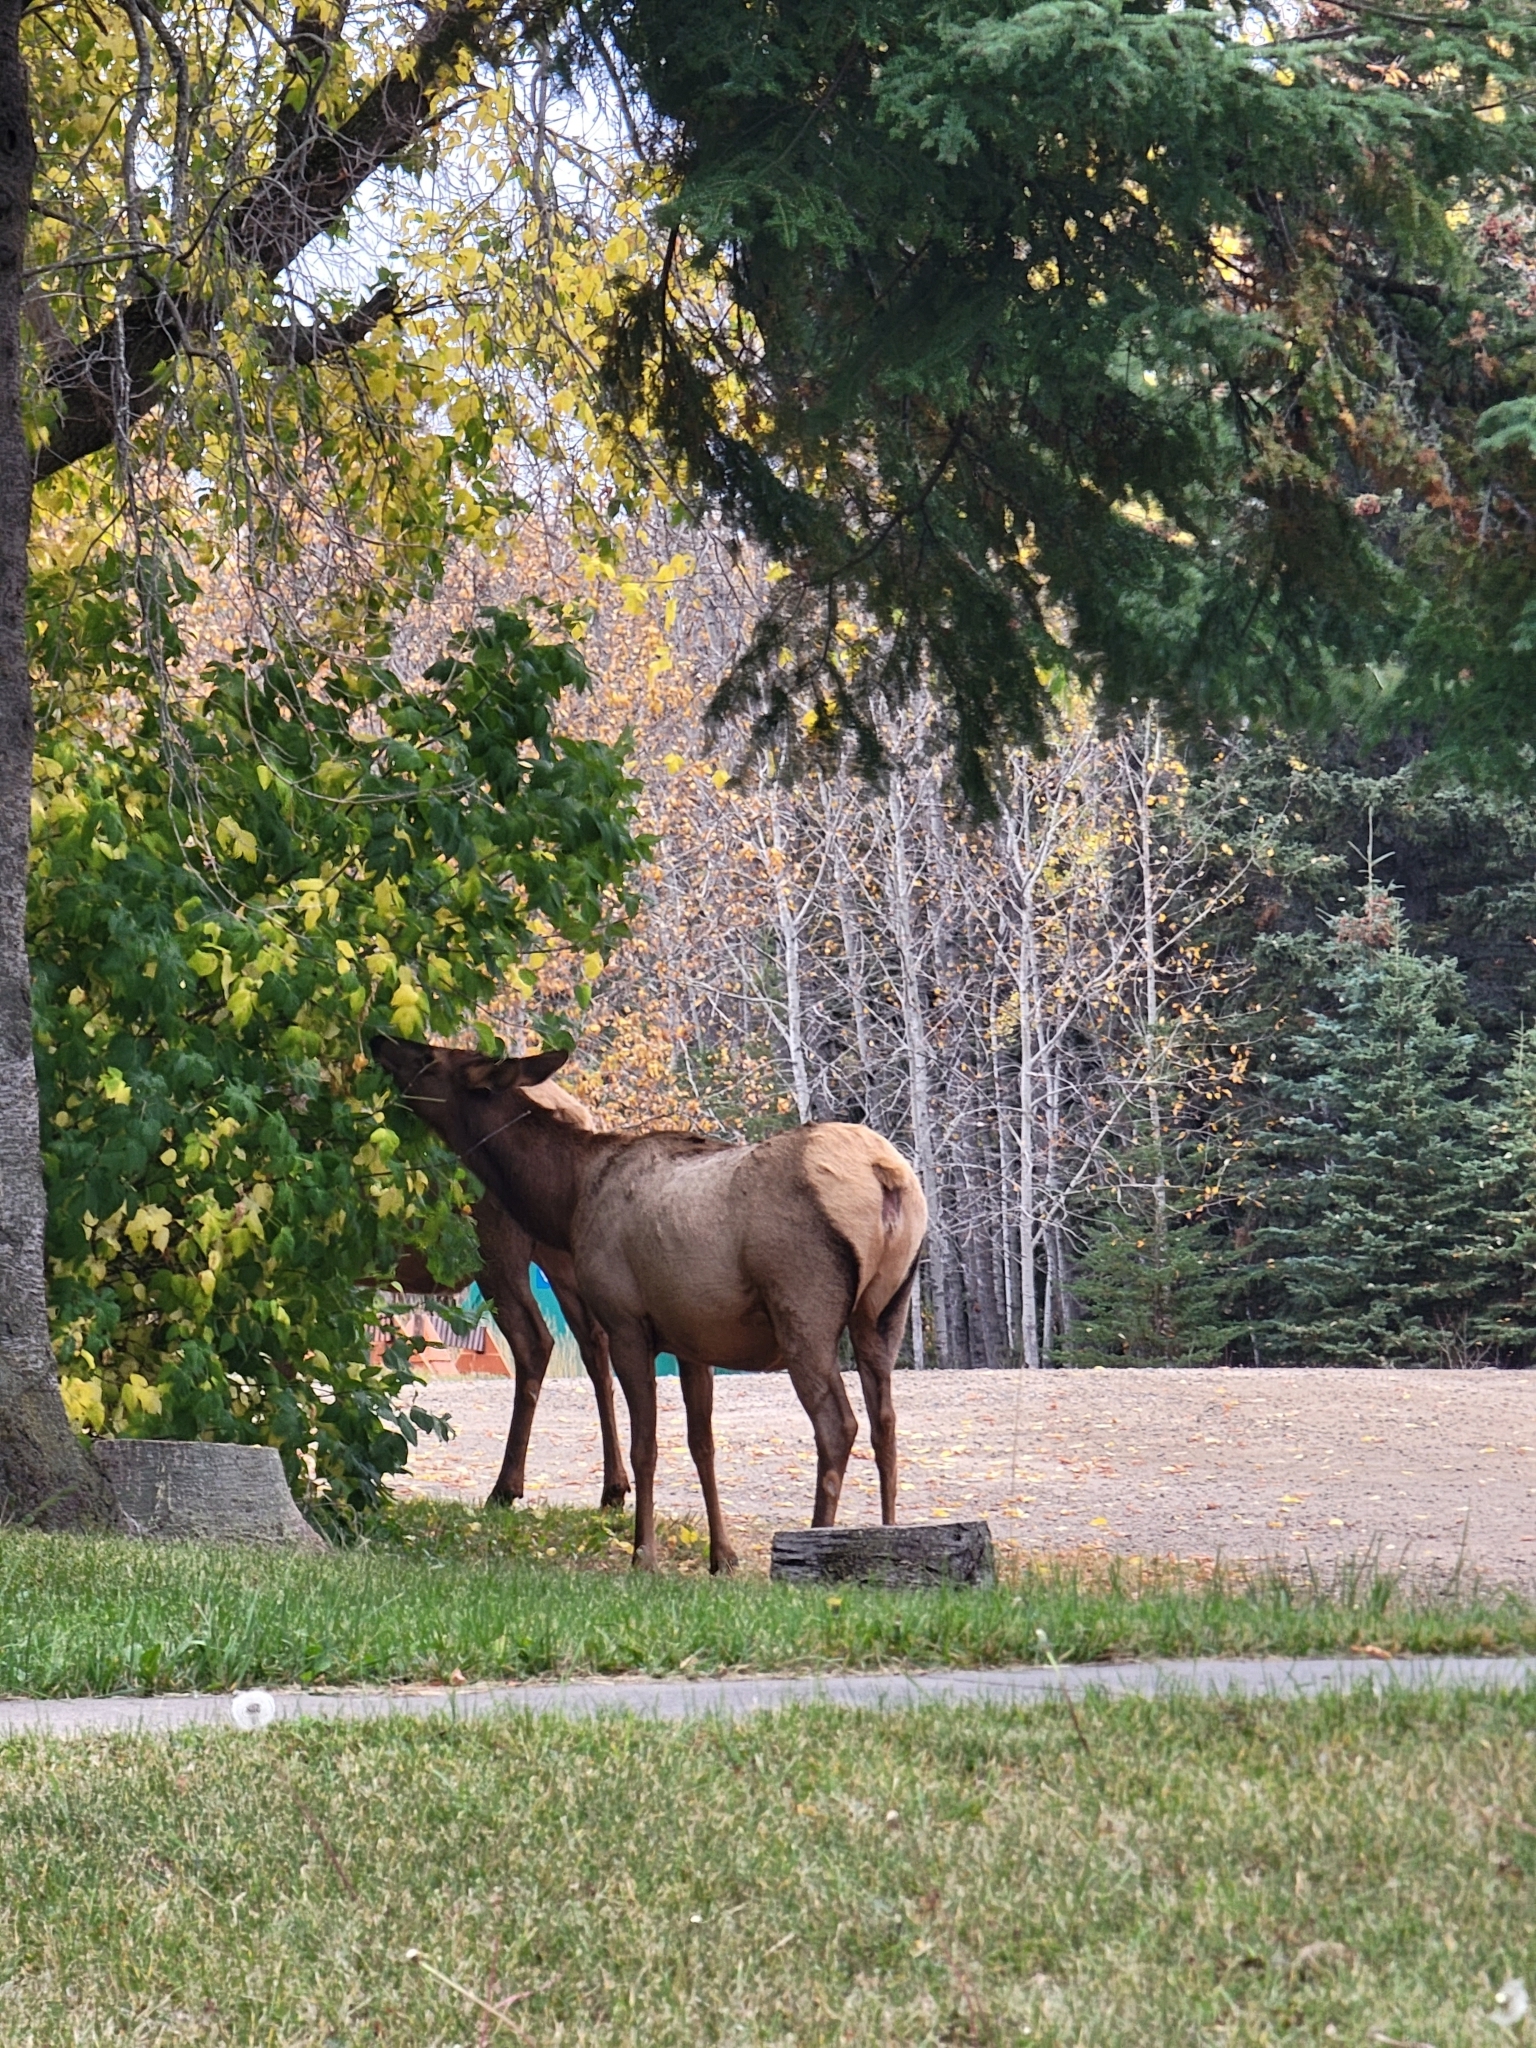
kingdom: Animalia
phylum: Chordata
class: Mammalia
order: Artiodactyla
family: Cervidae
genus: Cervus
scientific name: Cervus elaphus
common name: Red deer
